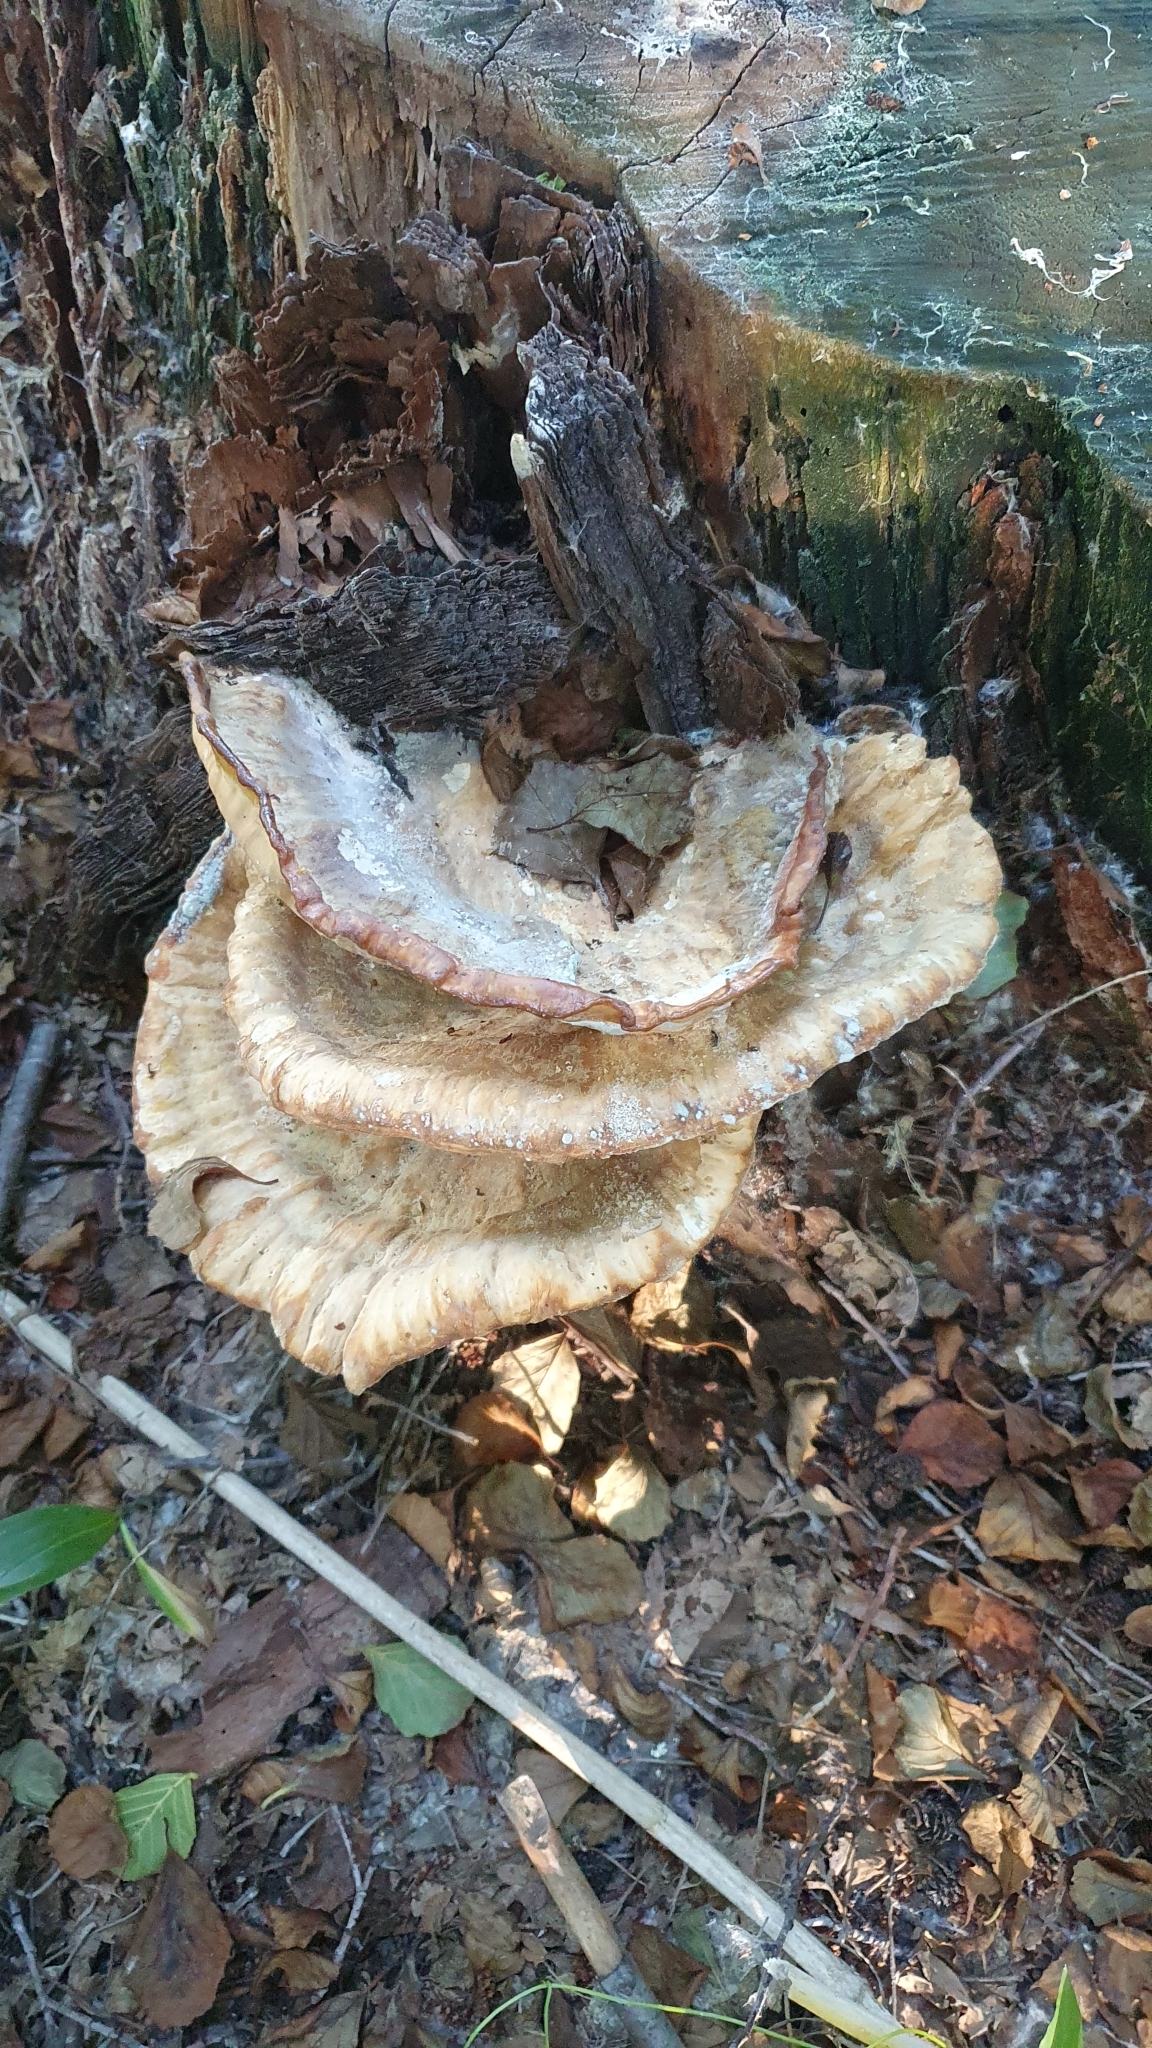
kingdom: Fungi
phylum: Basidiomycota
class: Agaricomycetes
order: Polyporales
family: Laetiporaceae
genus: Laetiporus
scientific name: Laetiporus sulphureus
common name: Chicken of the woods
